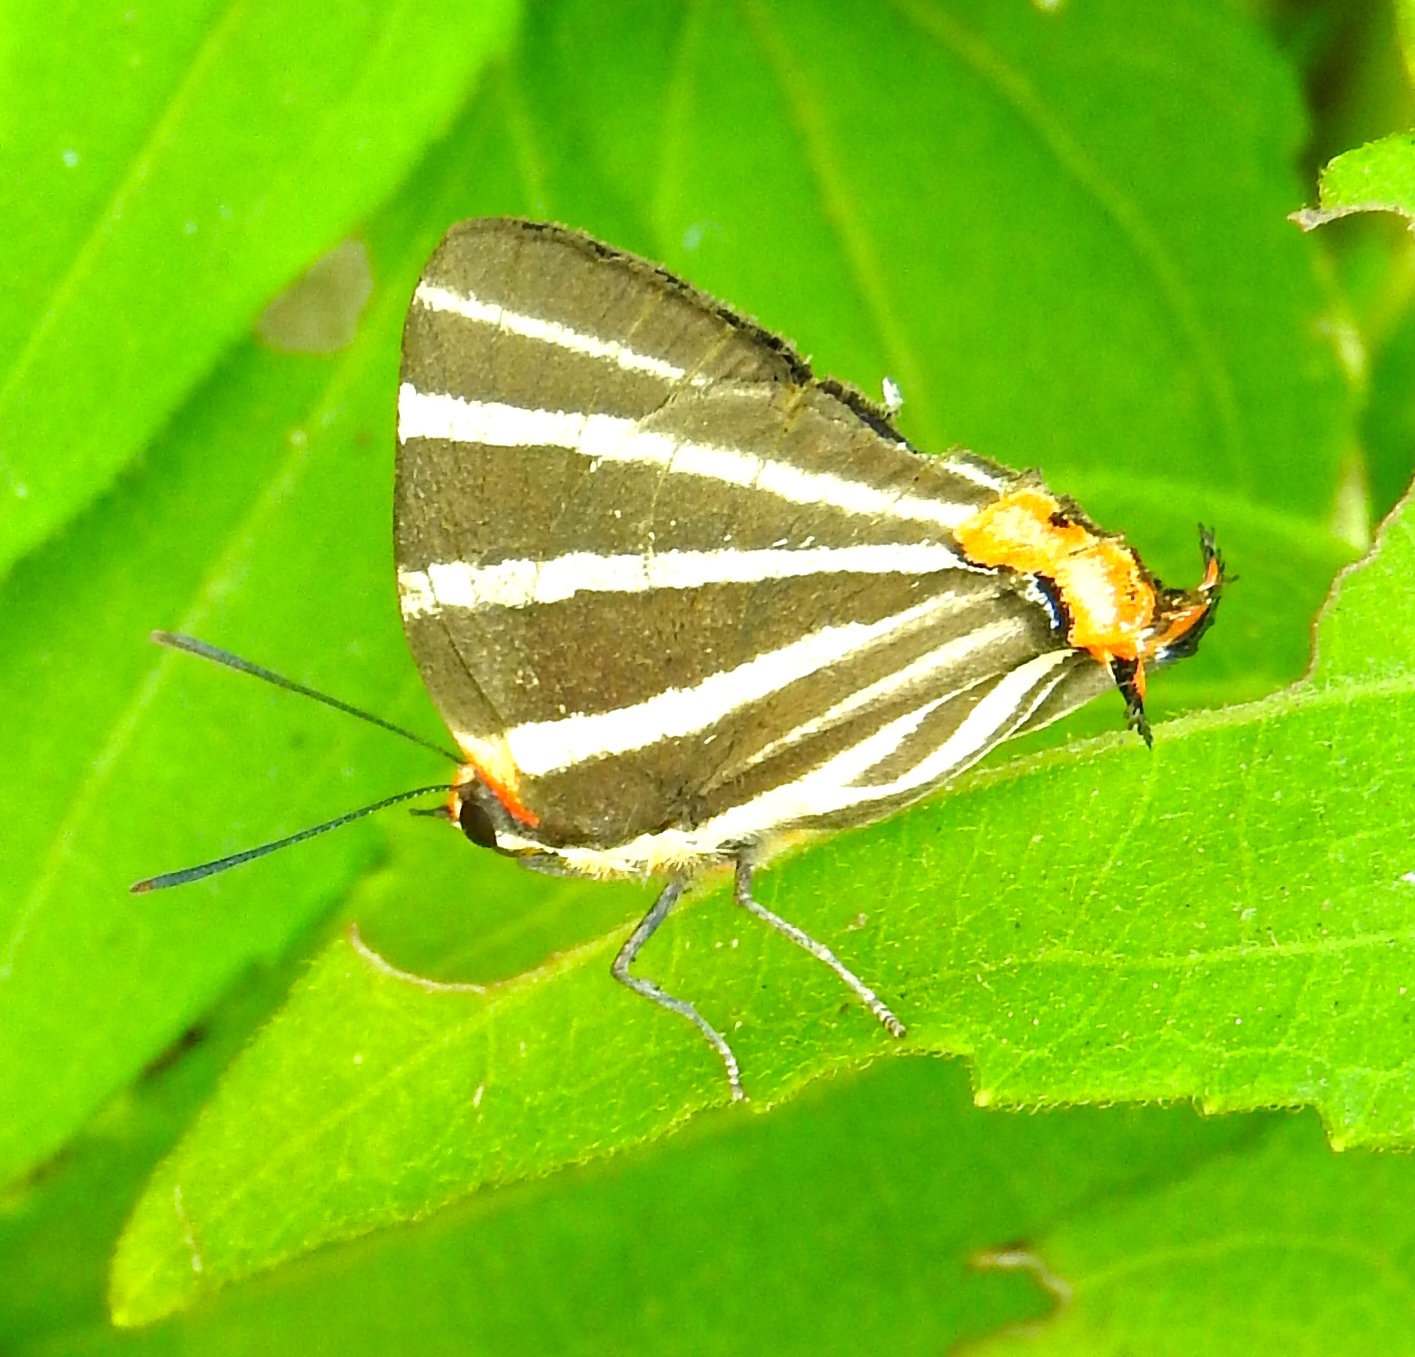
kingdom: Animalia
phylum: Arthropoda
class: Insecta
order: Lepidoptera
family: Lycaenidae
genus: Thecla
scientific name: Thecla bathildis
